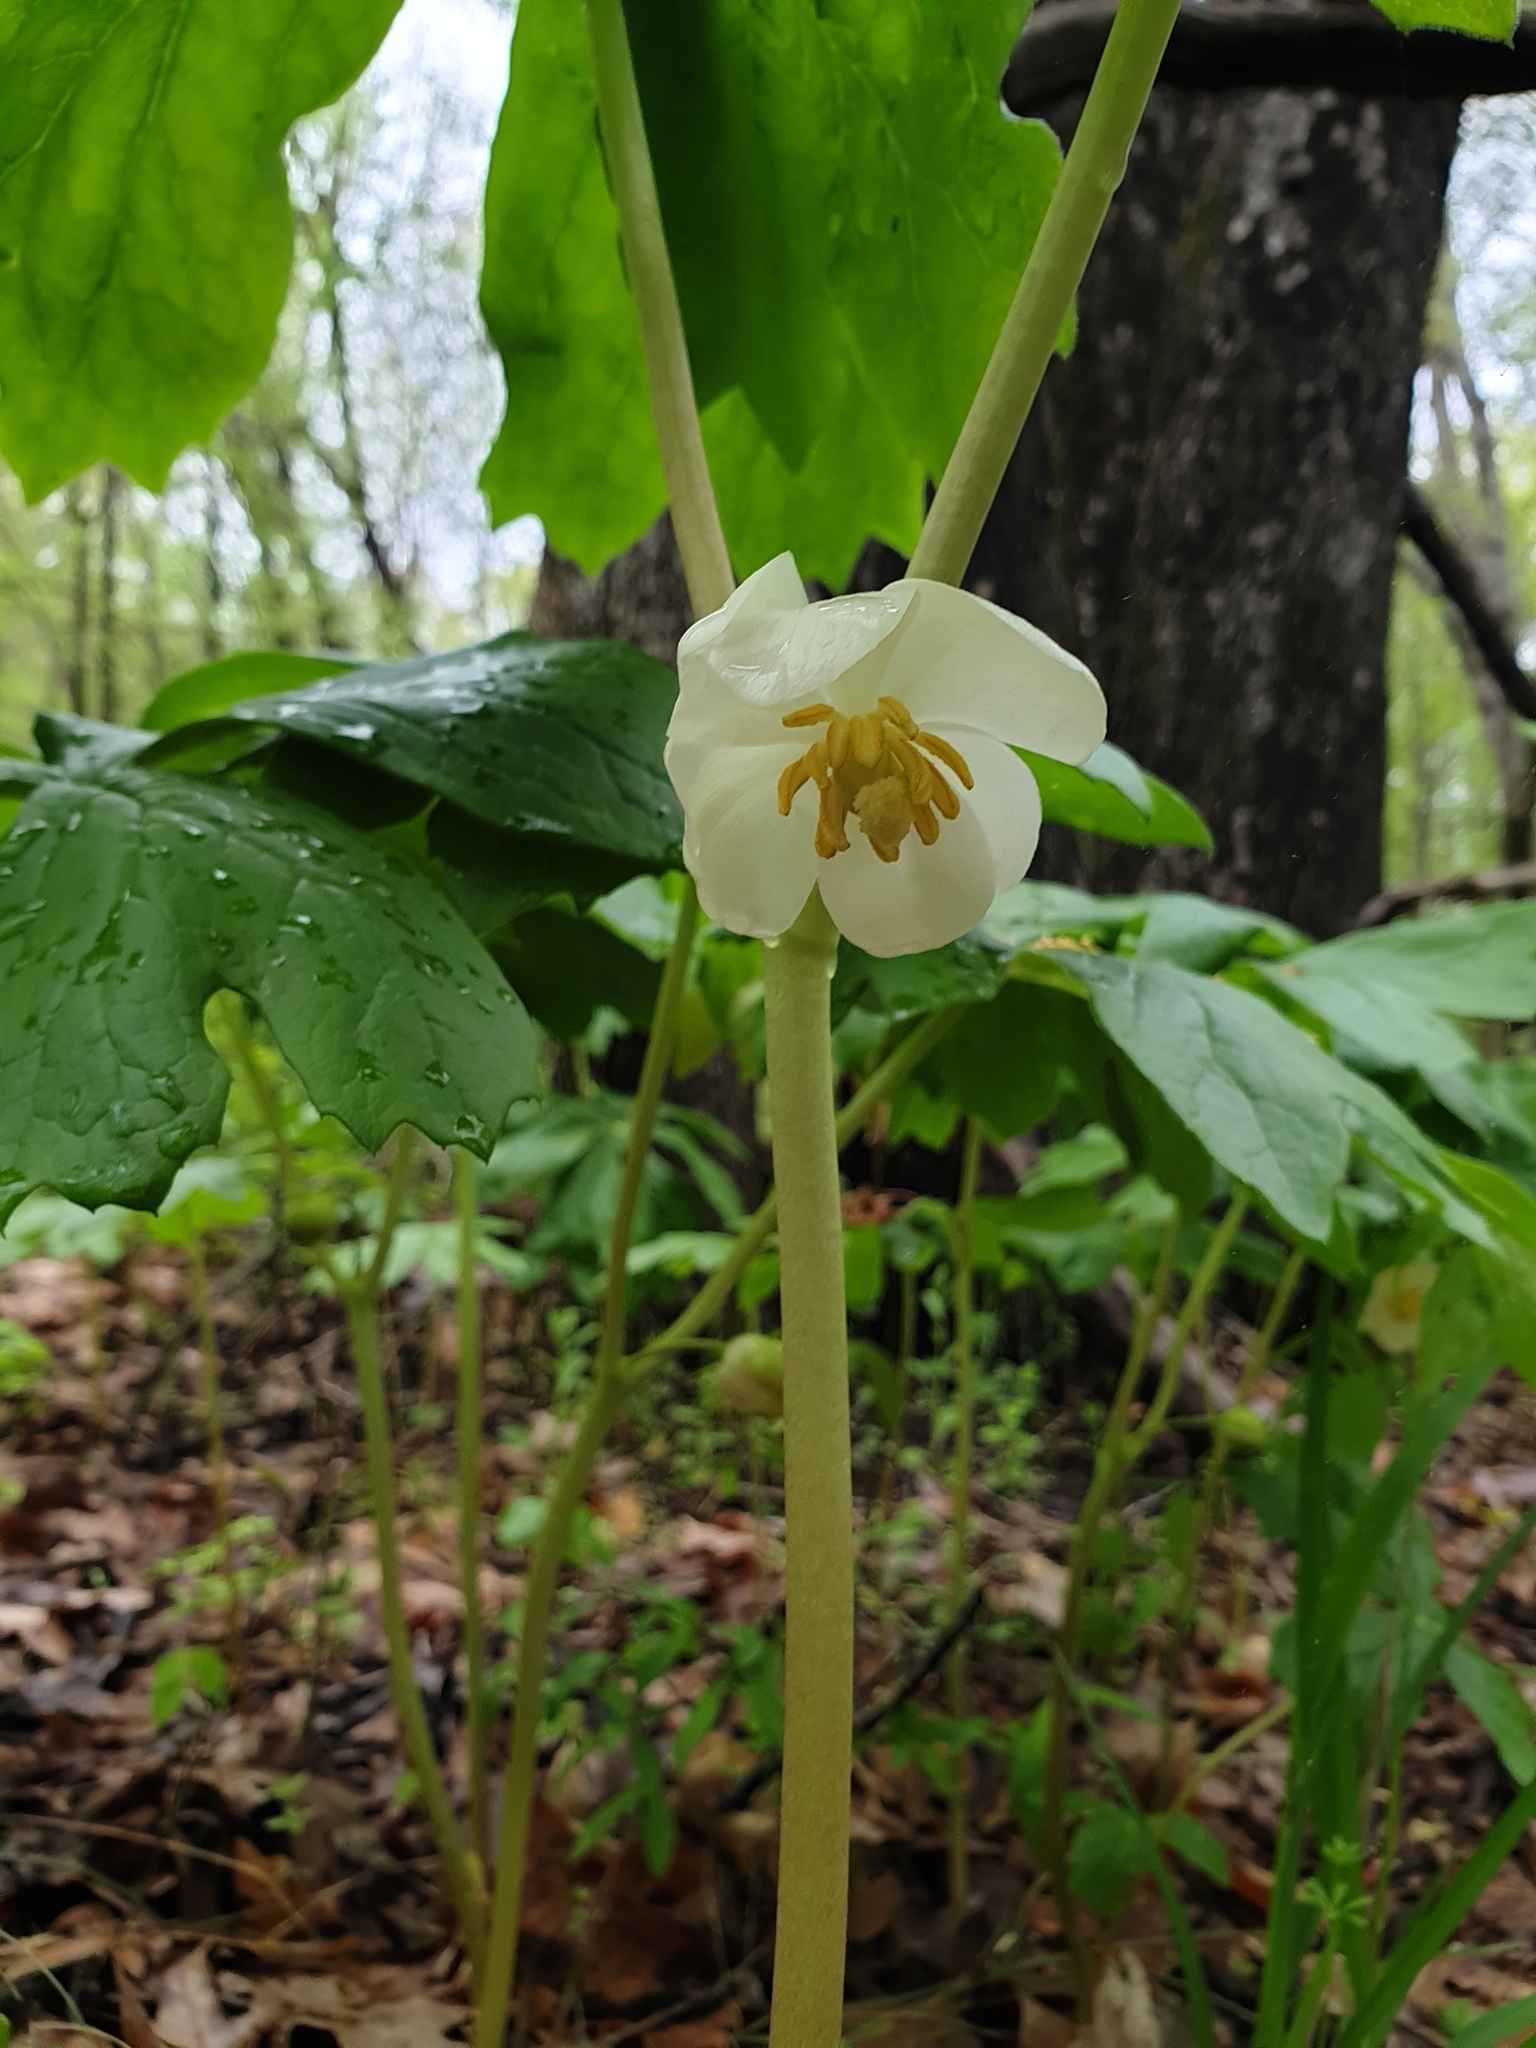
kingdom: Plantae
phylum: Tracheophyta
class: Magnoliopsida
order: Ranunculales
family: Berberidaceae
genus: Podophyllum
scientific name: Podophyllum peltatum
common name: Wild mandrake
